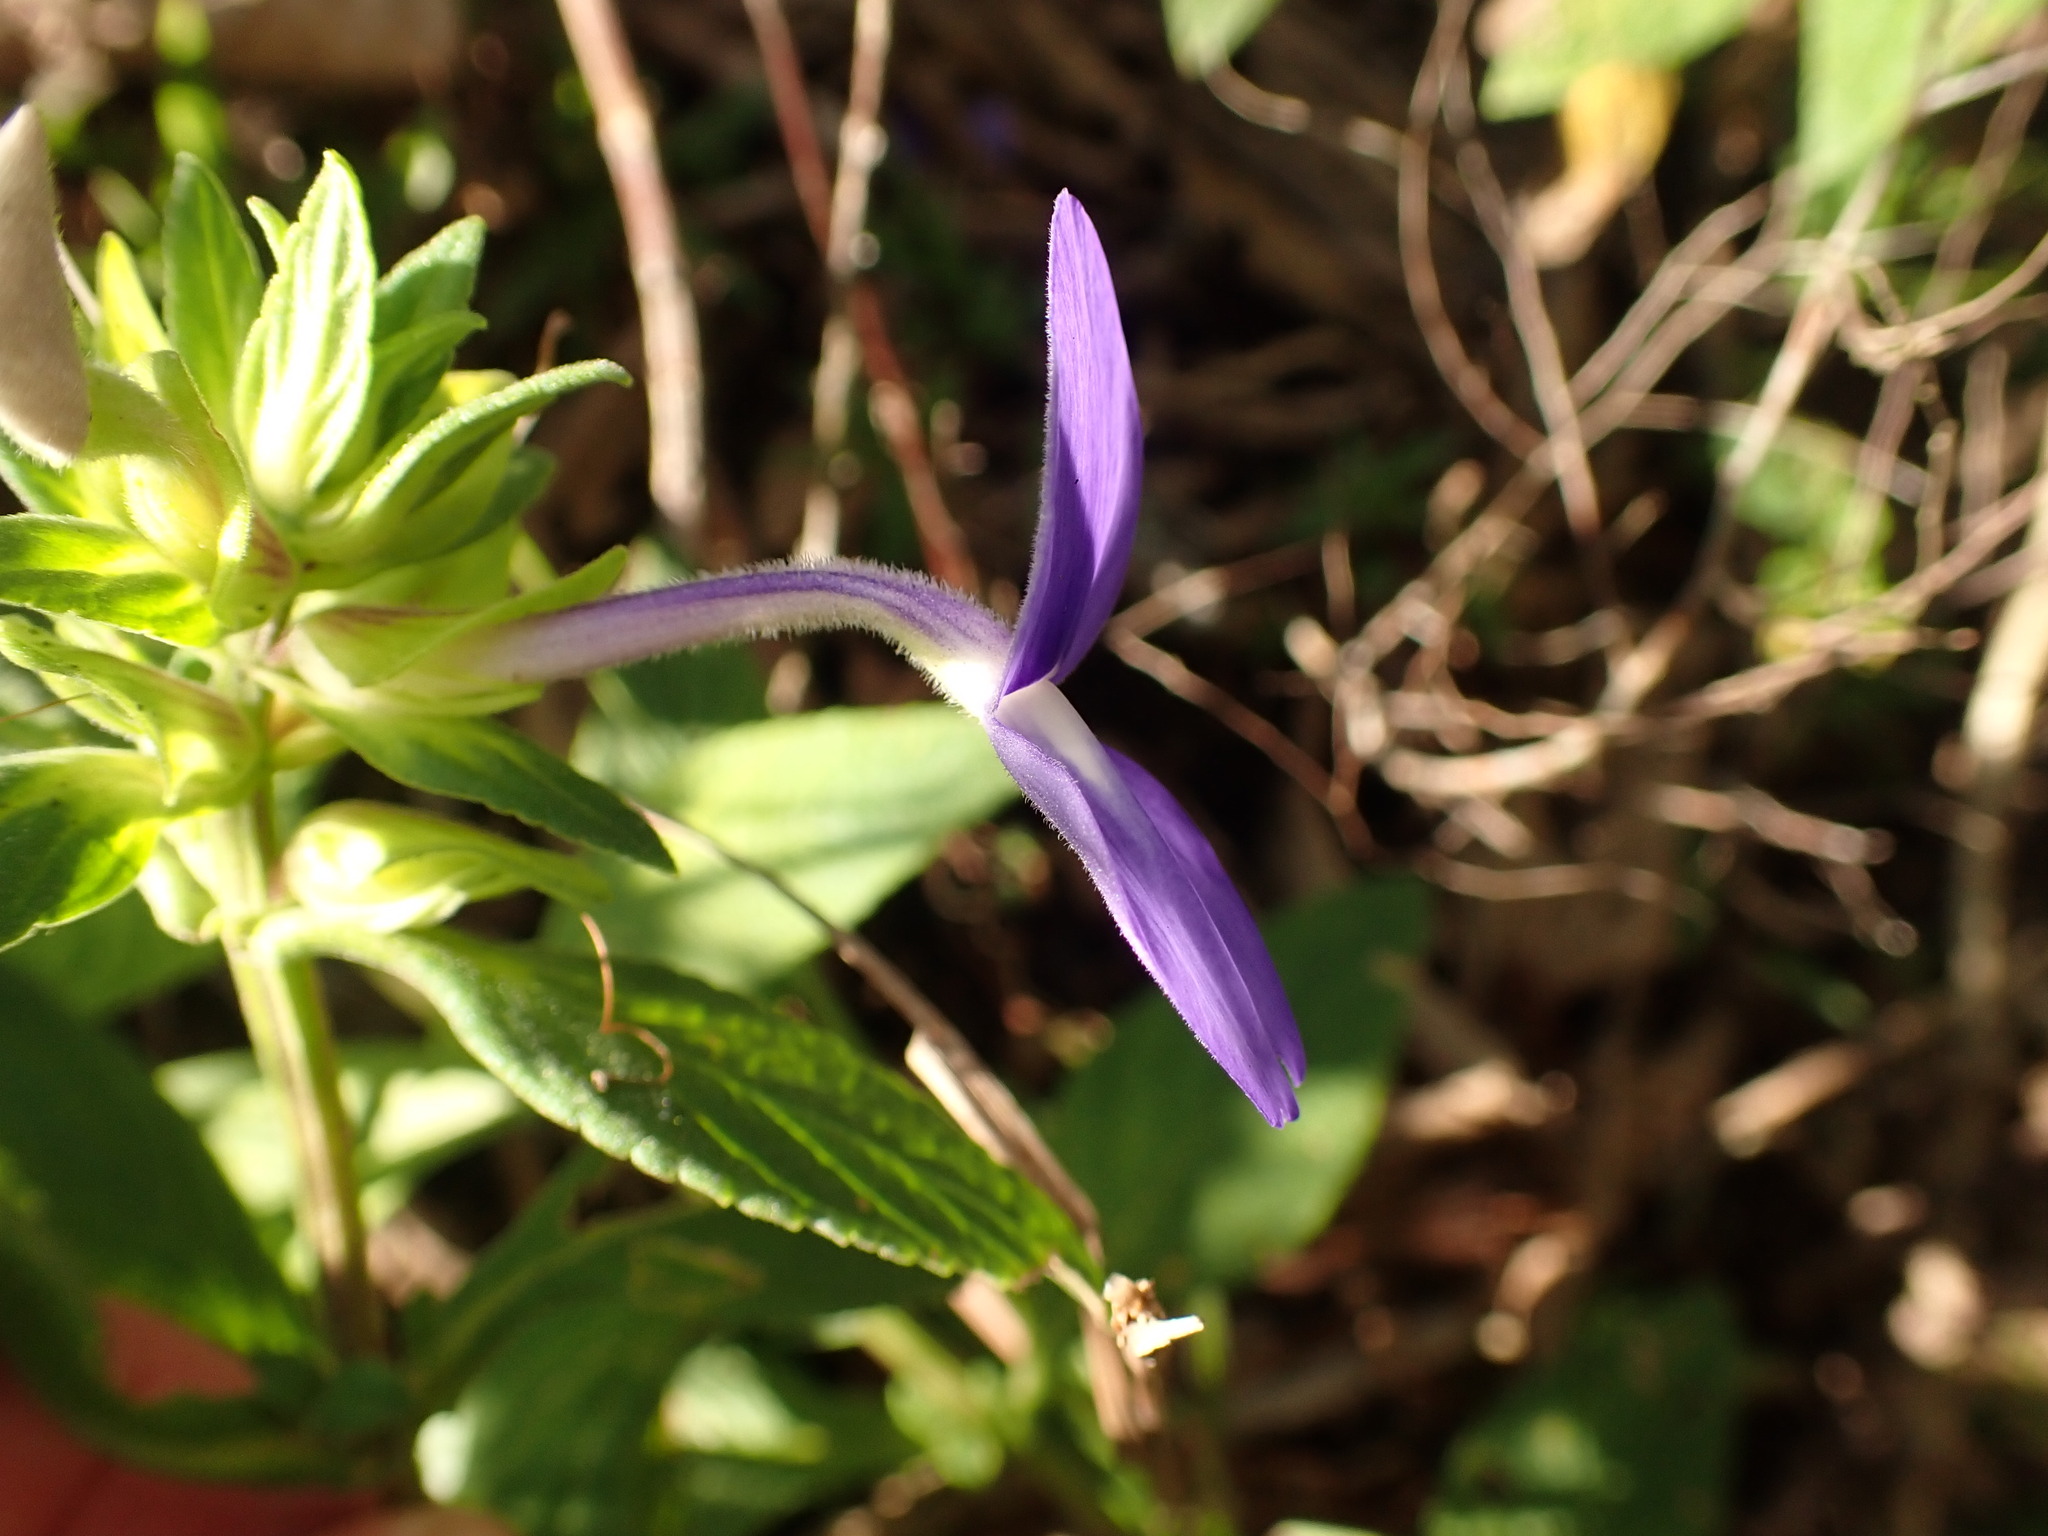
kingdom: Plantae
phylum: Tracheophyta
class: Magnoliopsida
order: Lamiales
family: Plantaginaceae
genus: Matourea
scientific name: Matourea azurea
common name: Amazon blue
